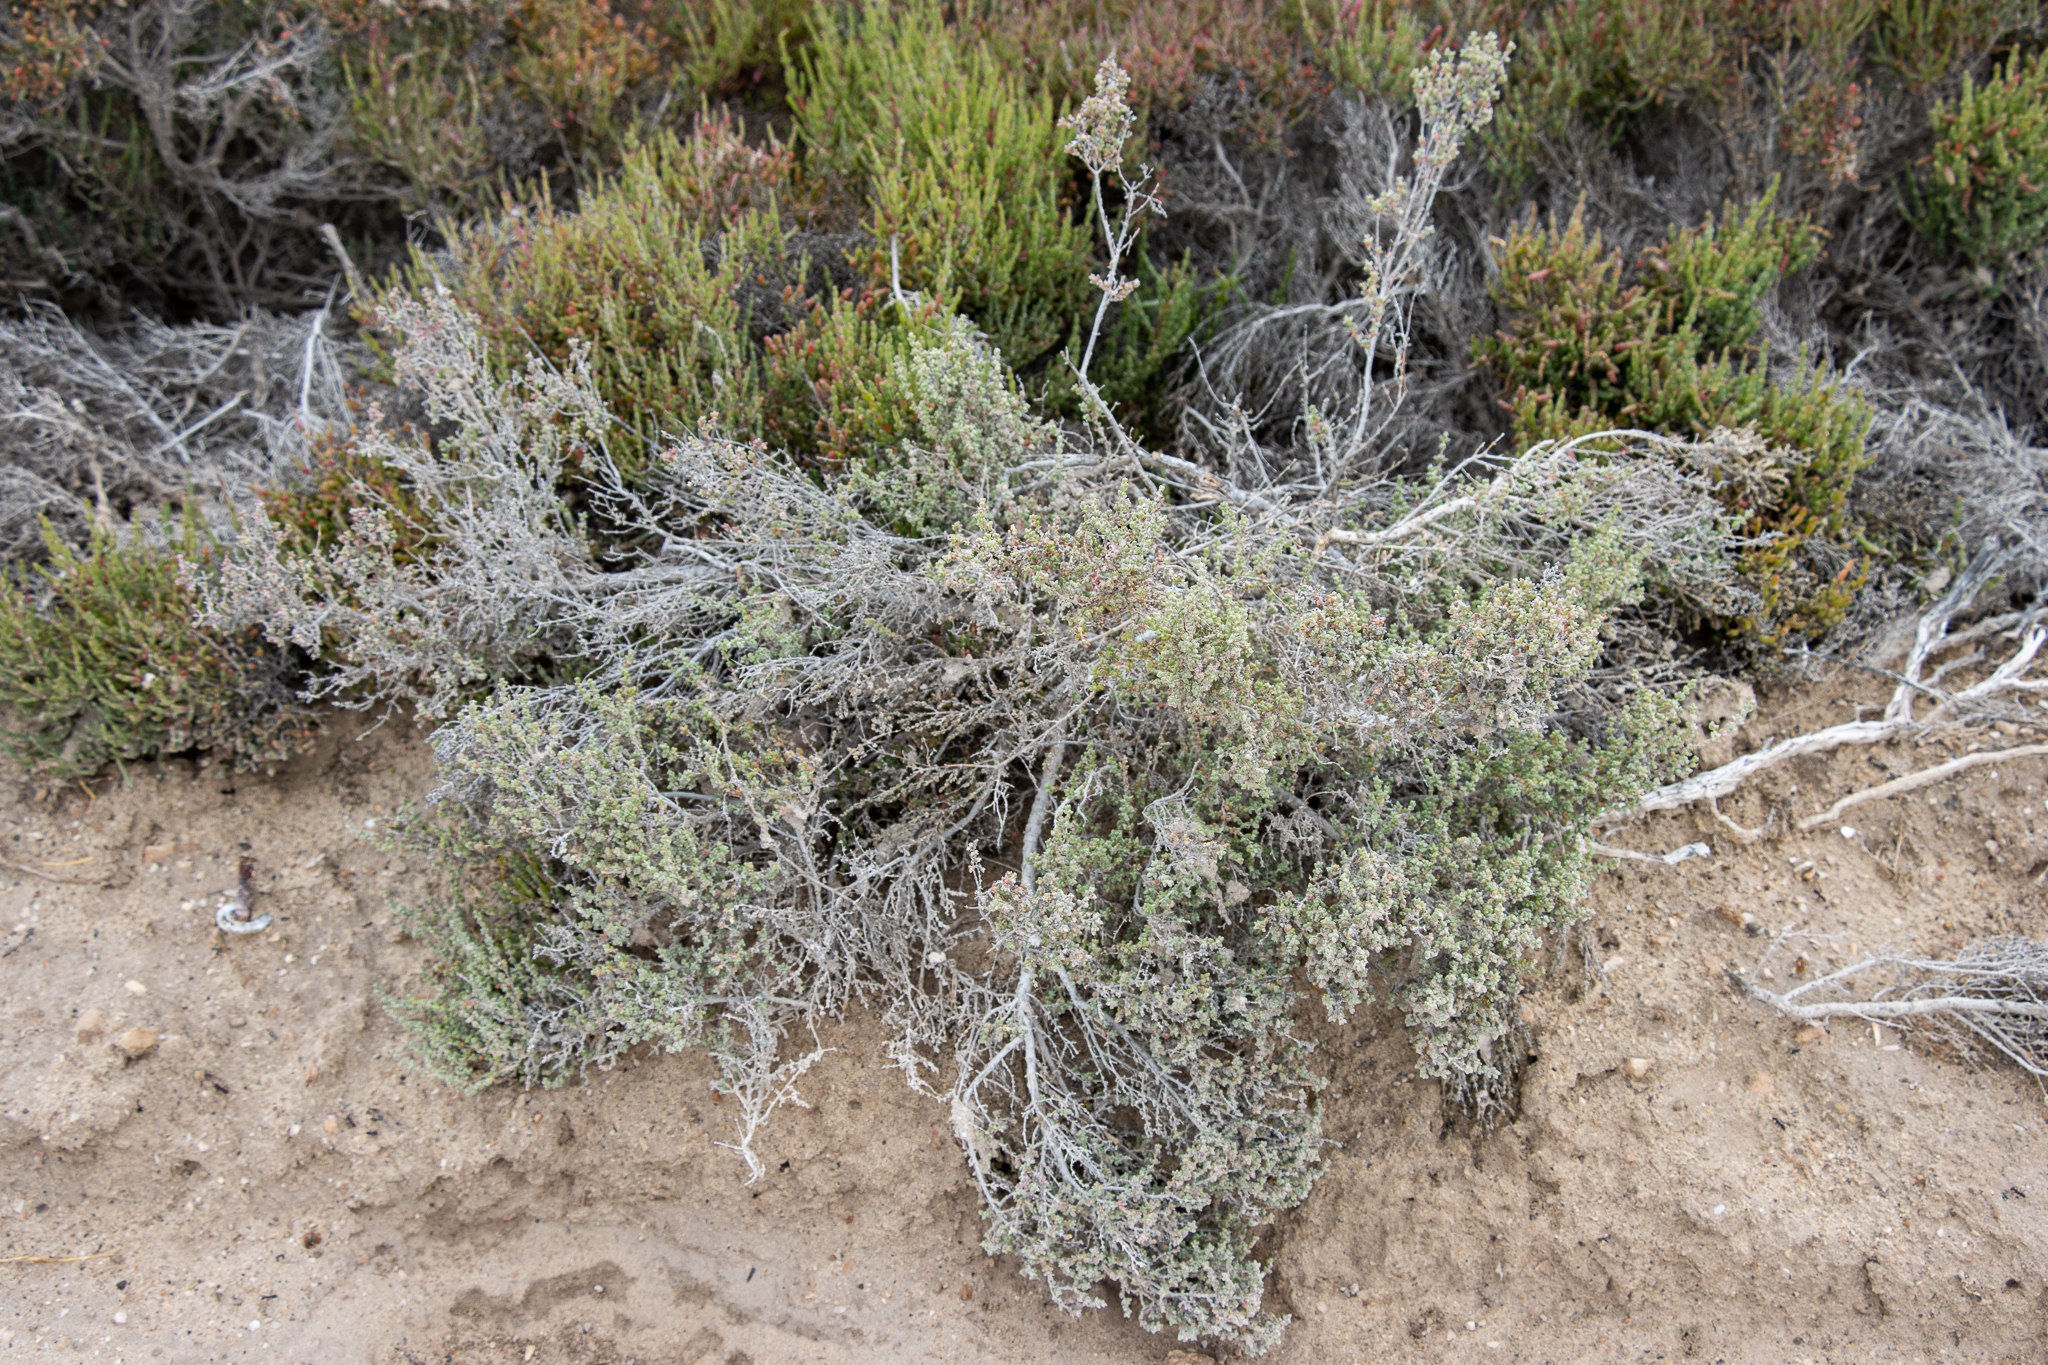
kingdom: Plantae
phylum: Tracheophyta
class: Magnoliopsida
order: Caryophyllales
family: Amaranthaceae
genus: Maireana
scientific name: Maireana oppositifolia
